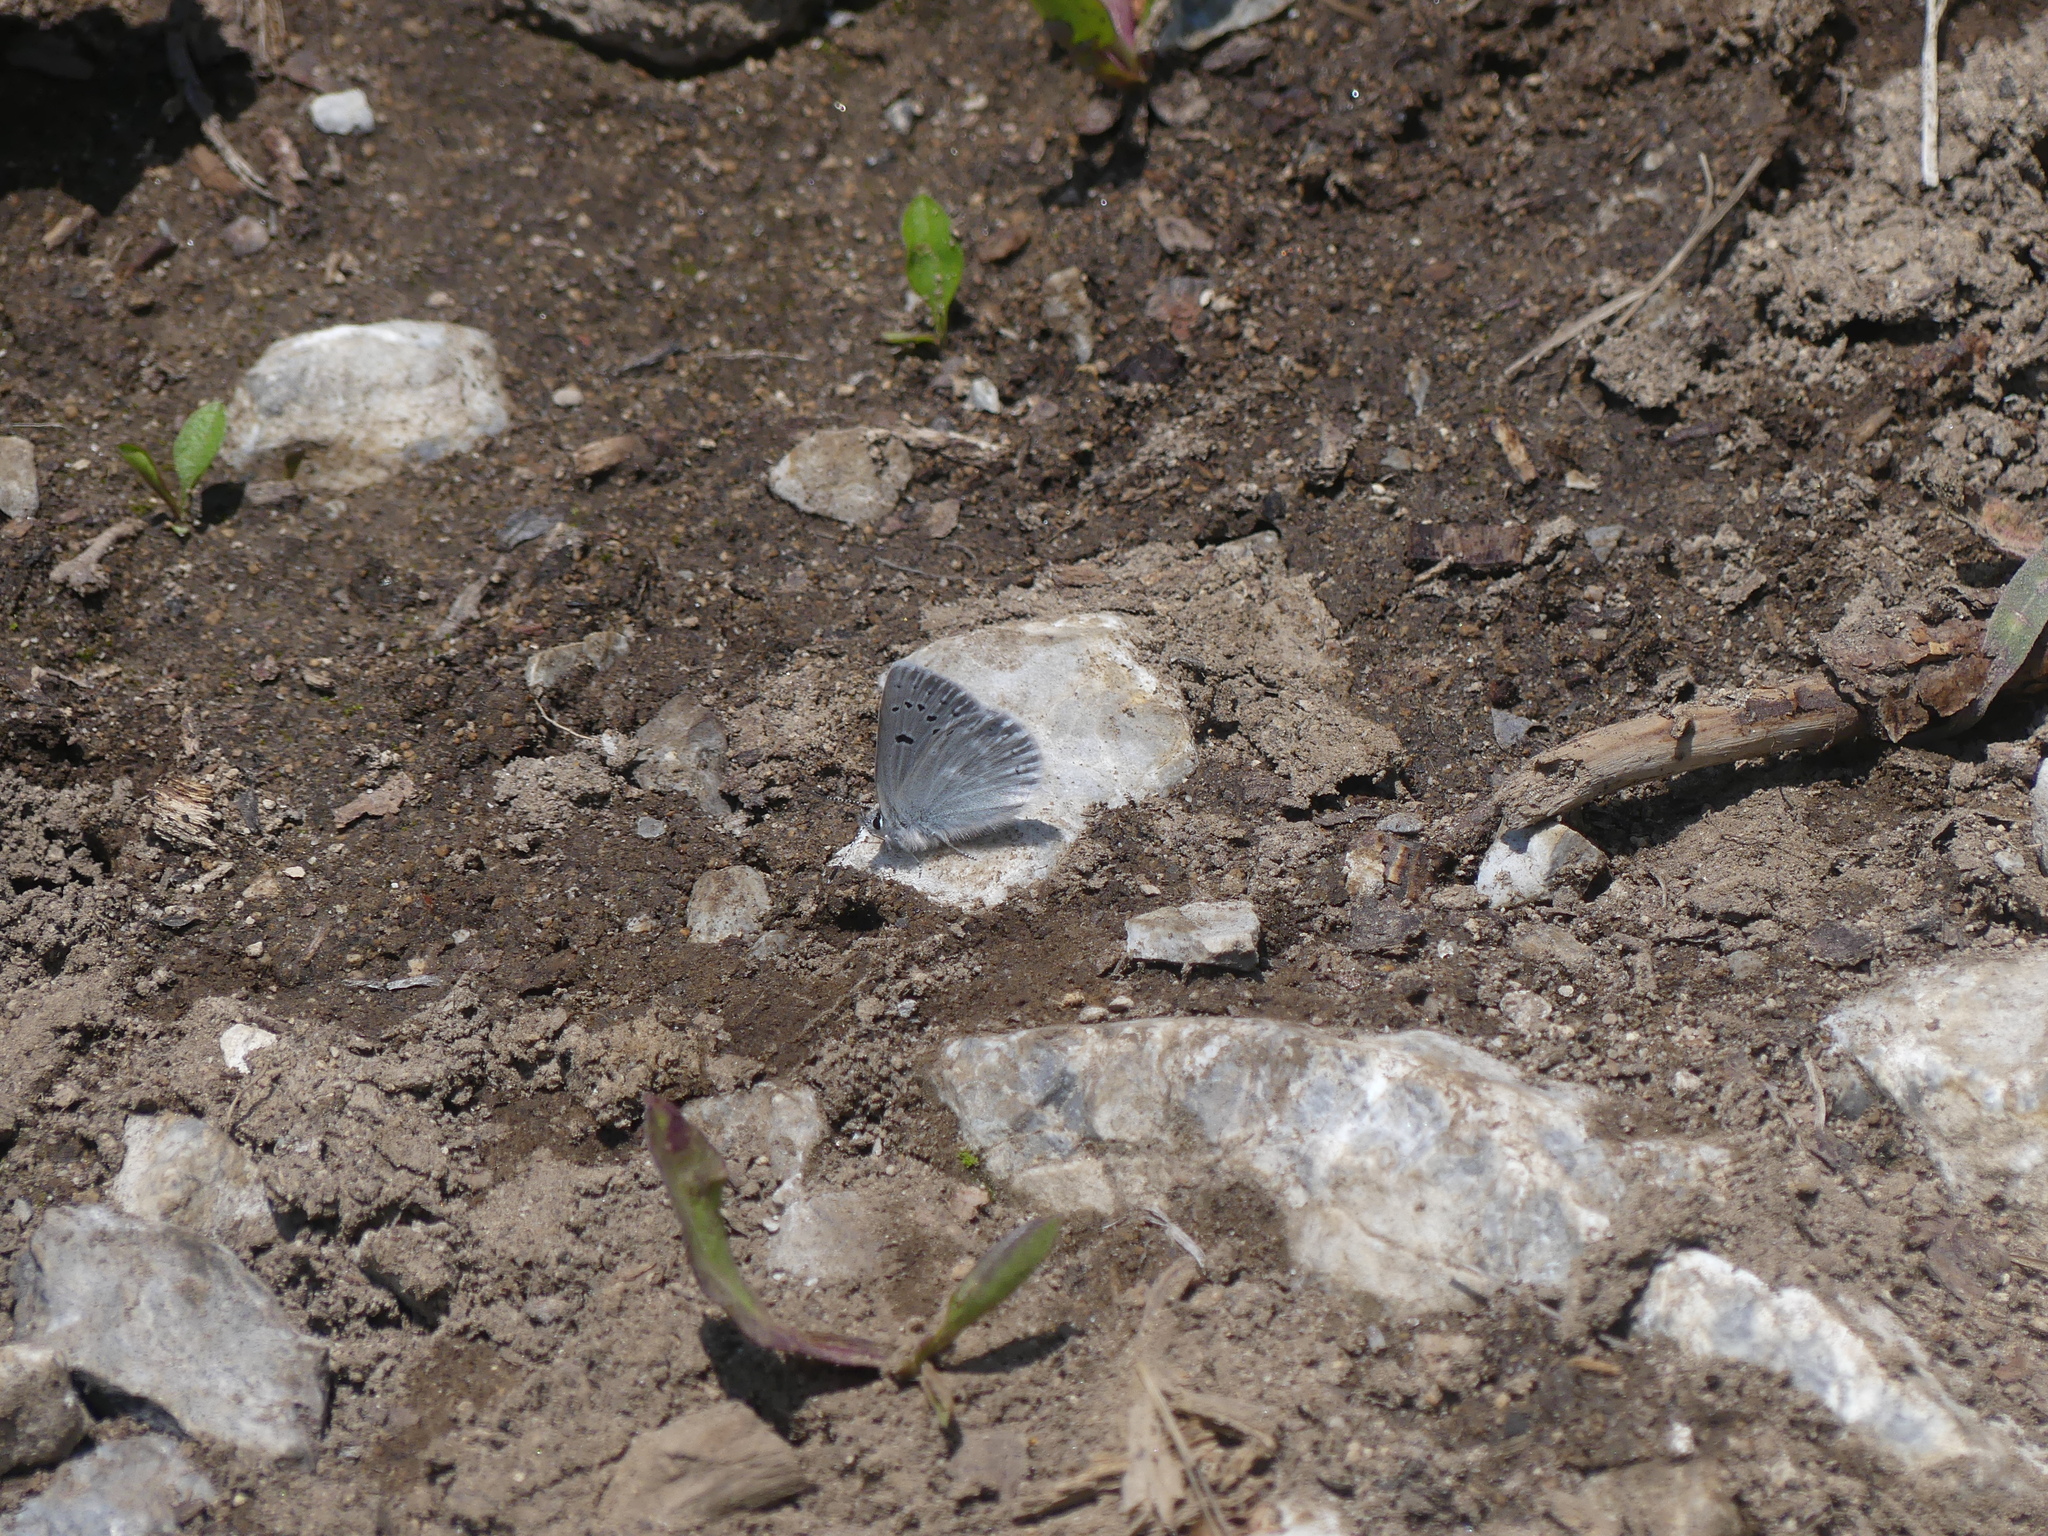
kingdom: Animalia
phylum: Arthropoda
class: Insecta
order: Lepidoptera
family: Lycaenidae
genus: Icaricia
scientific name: Icaricia icarioides
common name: Boisduval's blue
